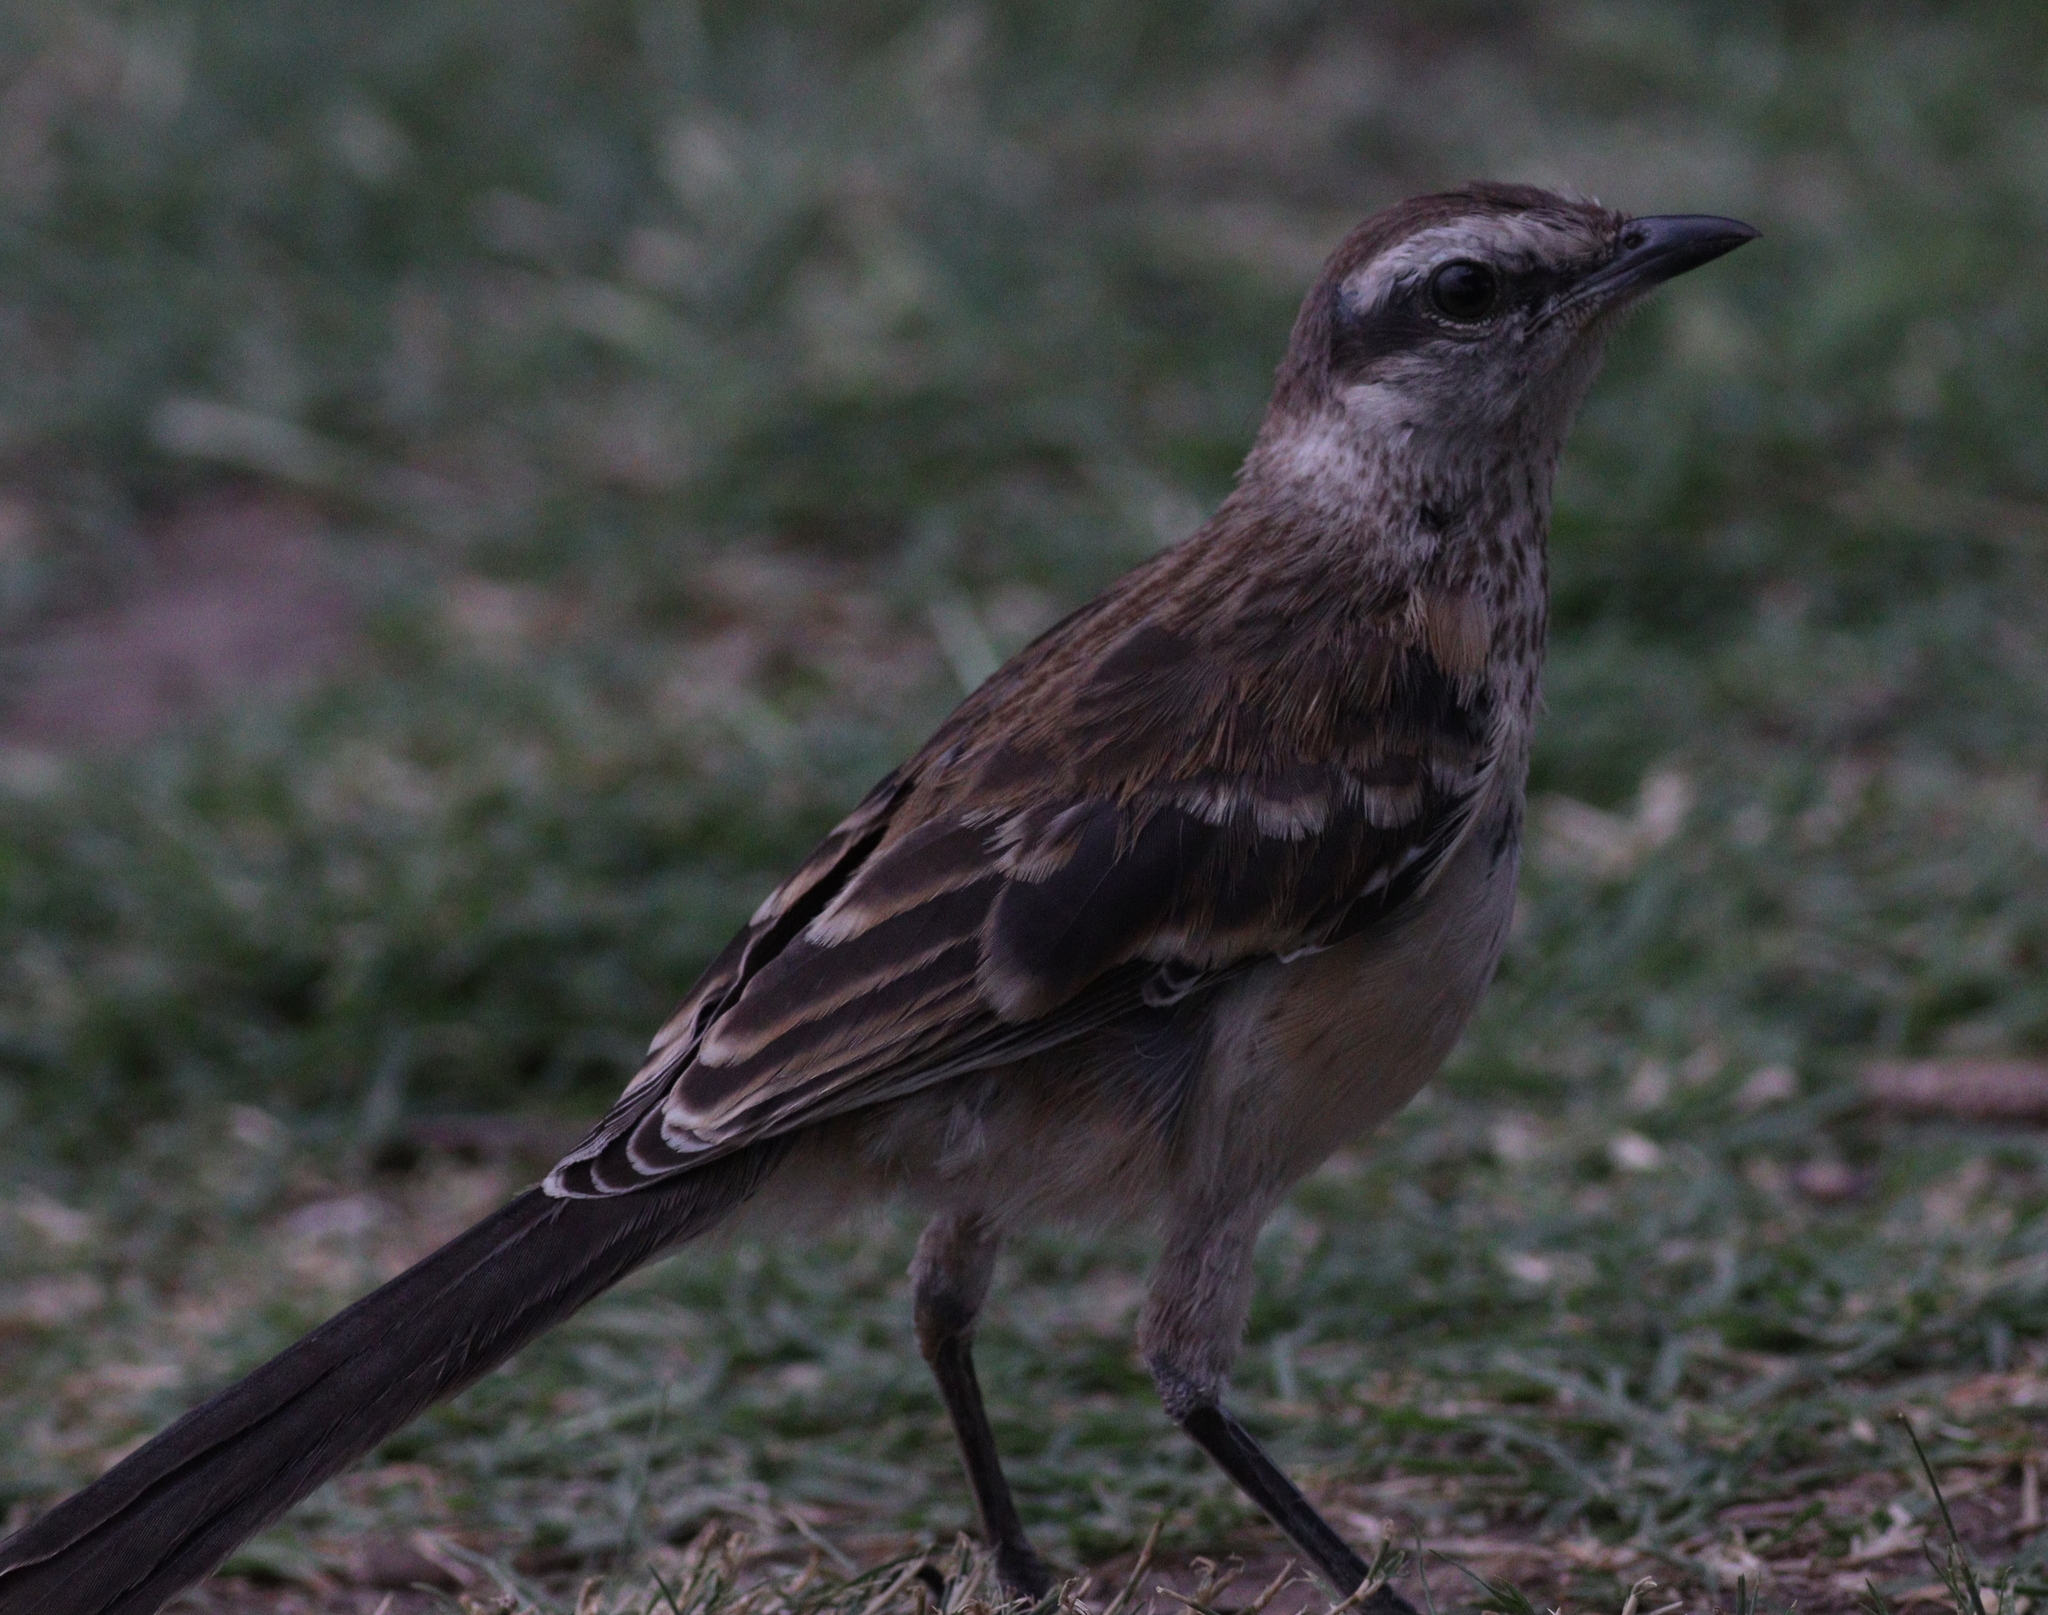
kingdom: Animalia
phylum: Chordata
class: Aves
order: Passeriformes
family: Mimidae
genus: Mimus
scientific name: Mimus saturninus
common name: Chalk-browed mockingbird
